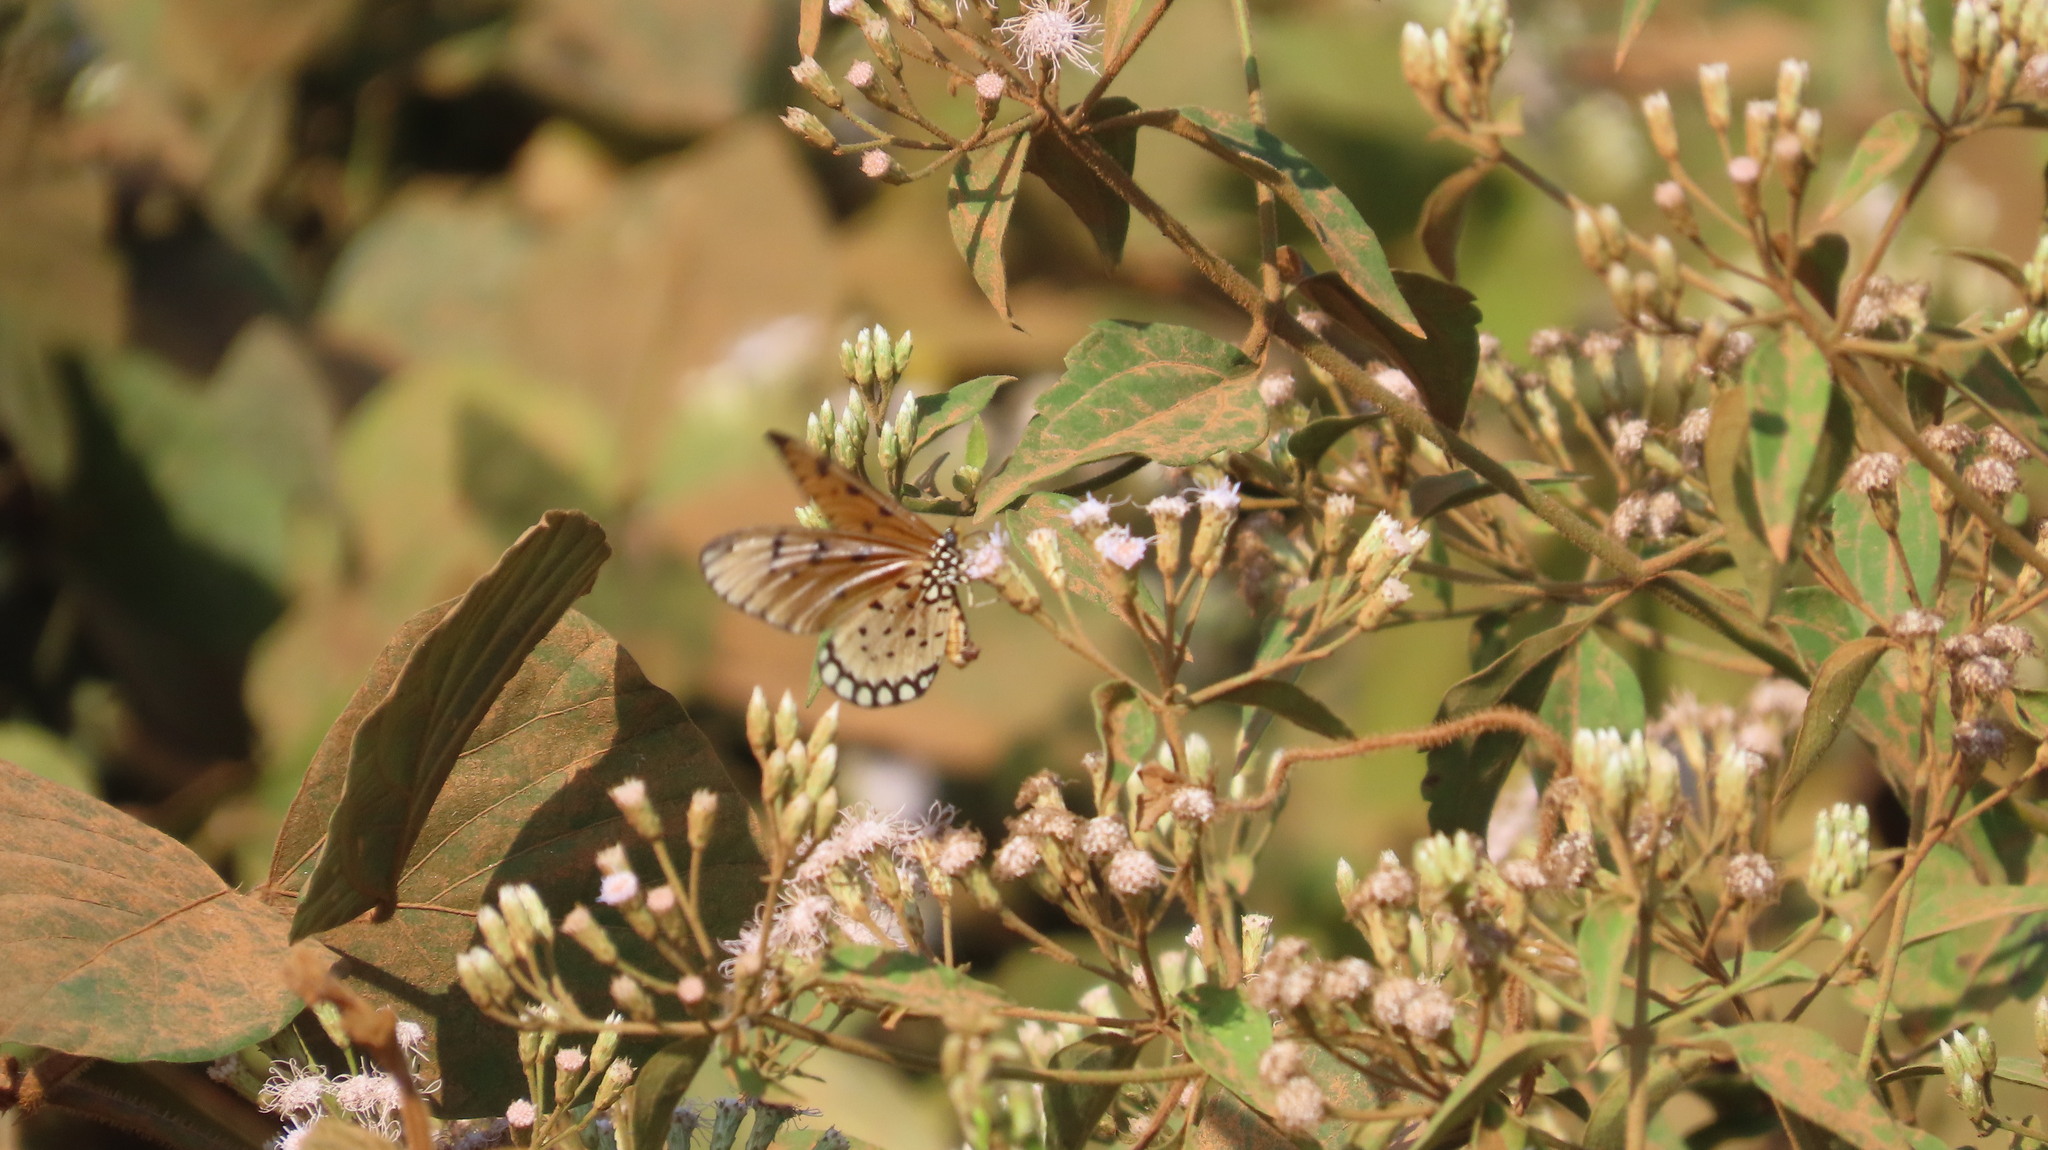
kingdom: Animalia
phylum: Arthropoda
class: Insecta
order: Lepidoptera
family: Nymphalidae
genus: Acraea
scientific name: Acraea terpsicore
